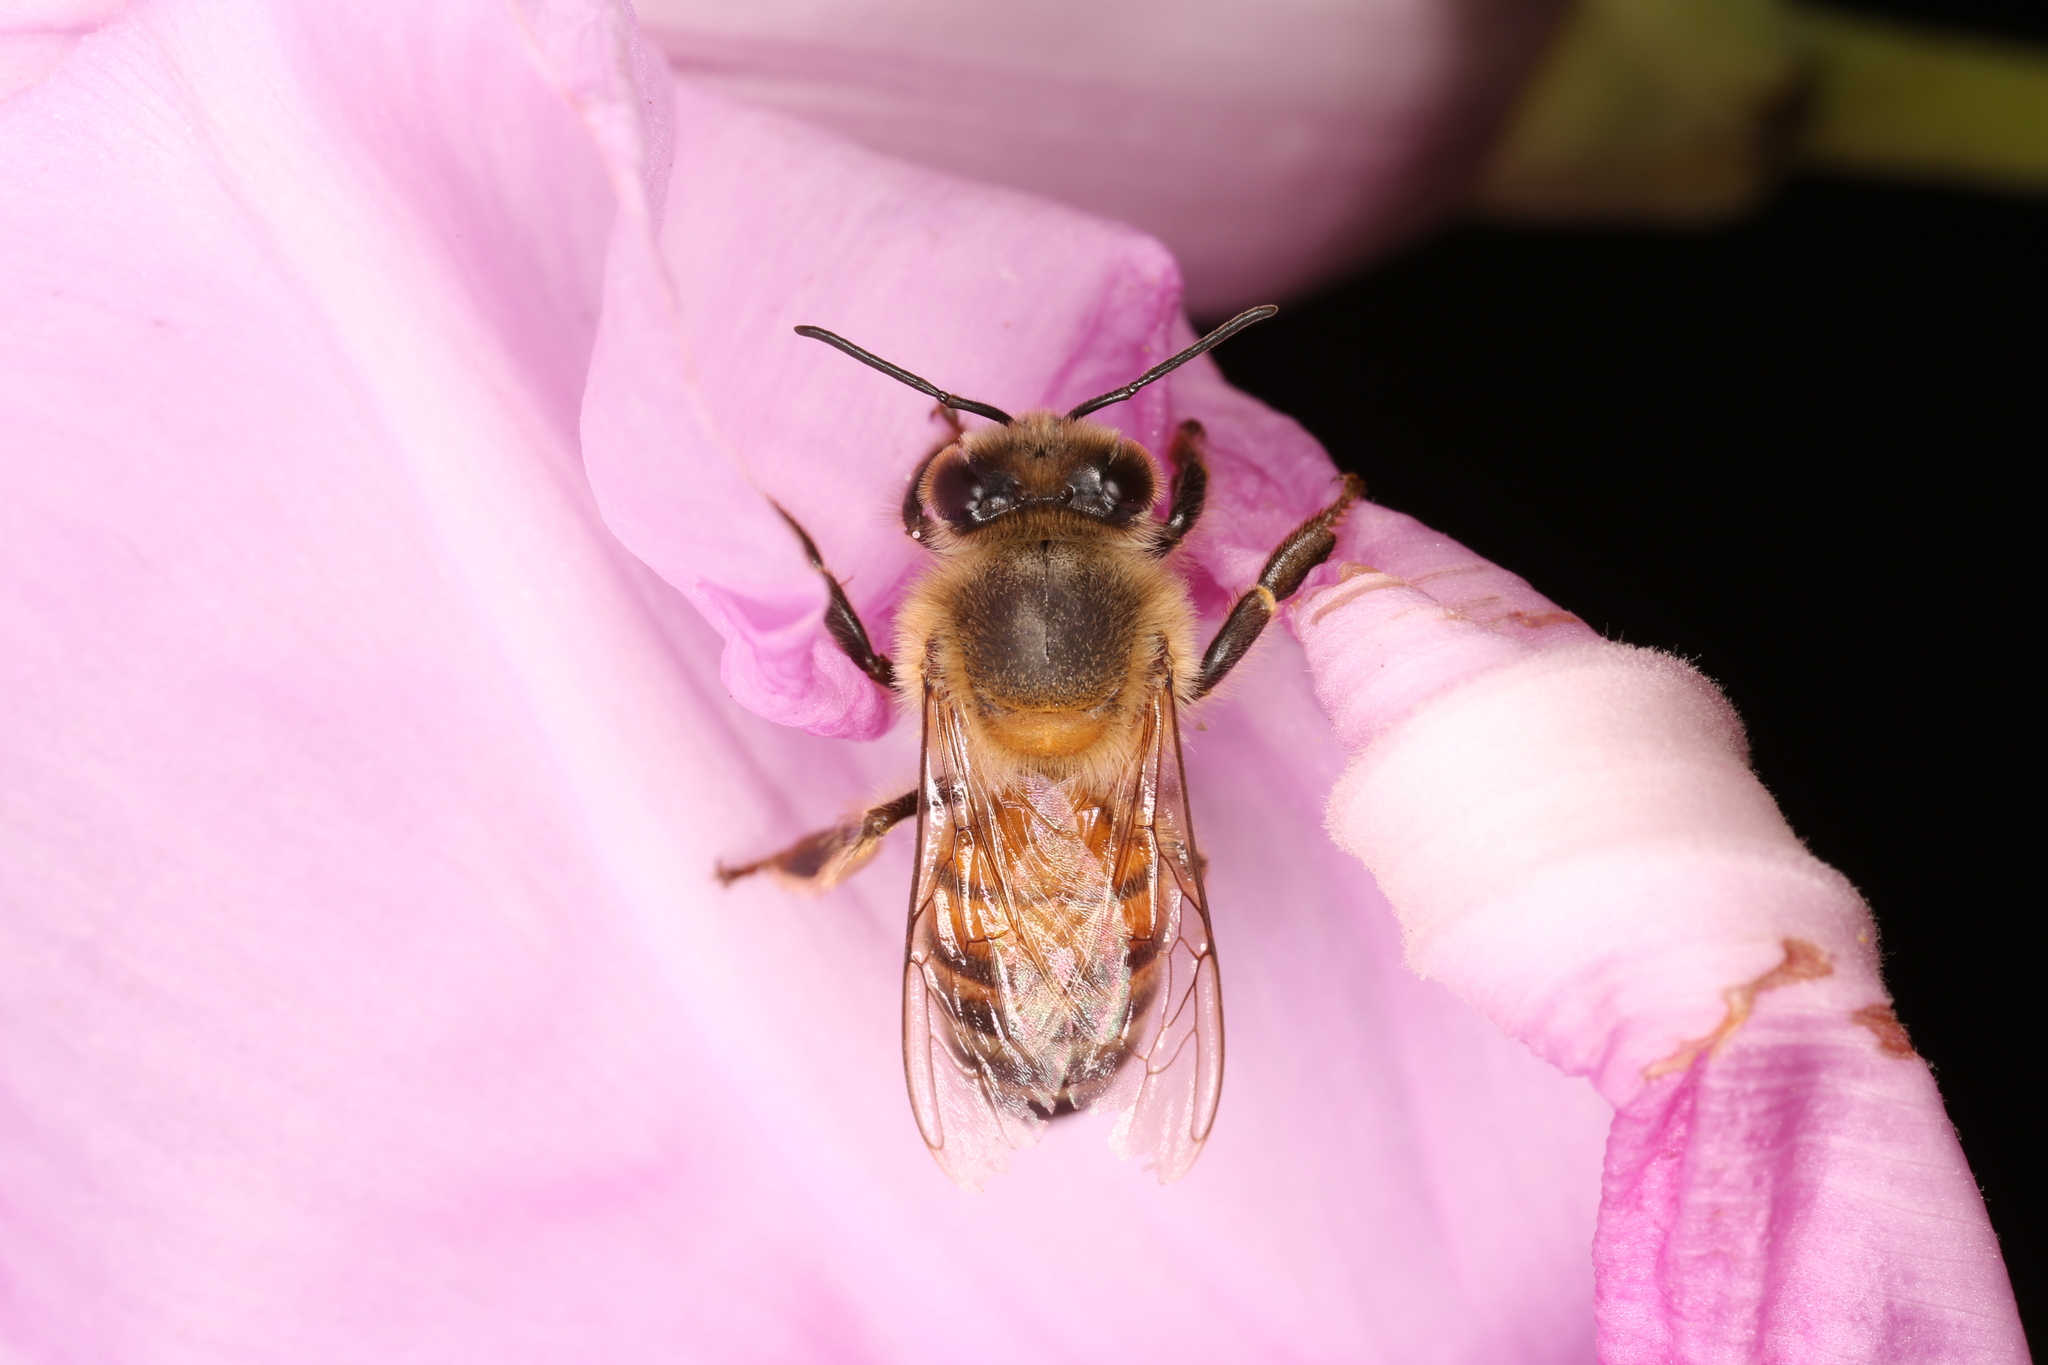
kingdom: Animalia
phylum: Arthropoda
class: Insecta
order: Hymenoptera
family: Apidae
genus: Apis
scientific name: Apis mellifera
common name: Honey bee
